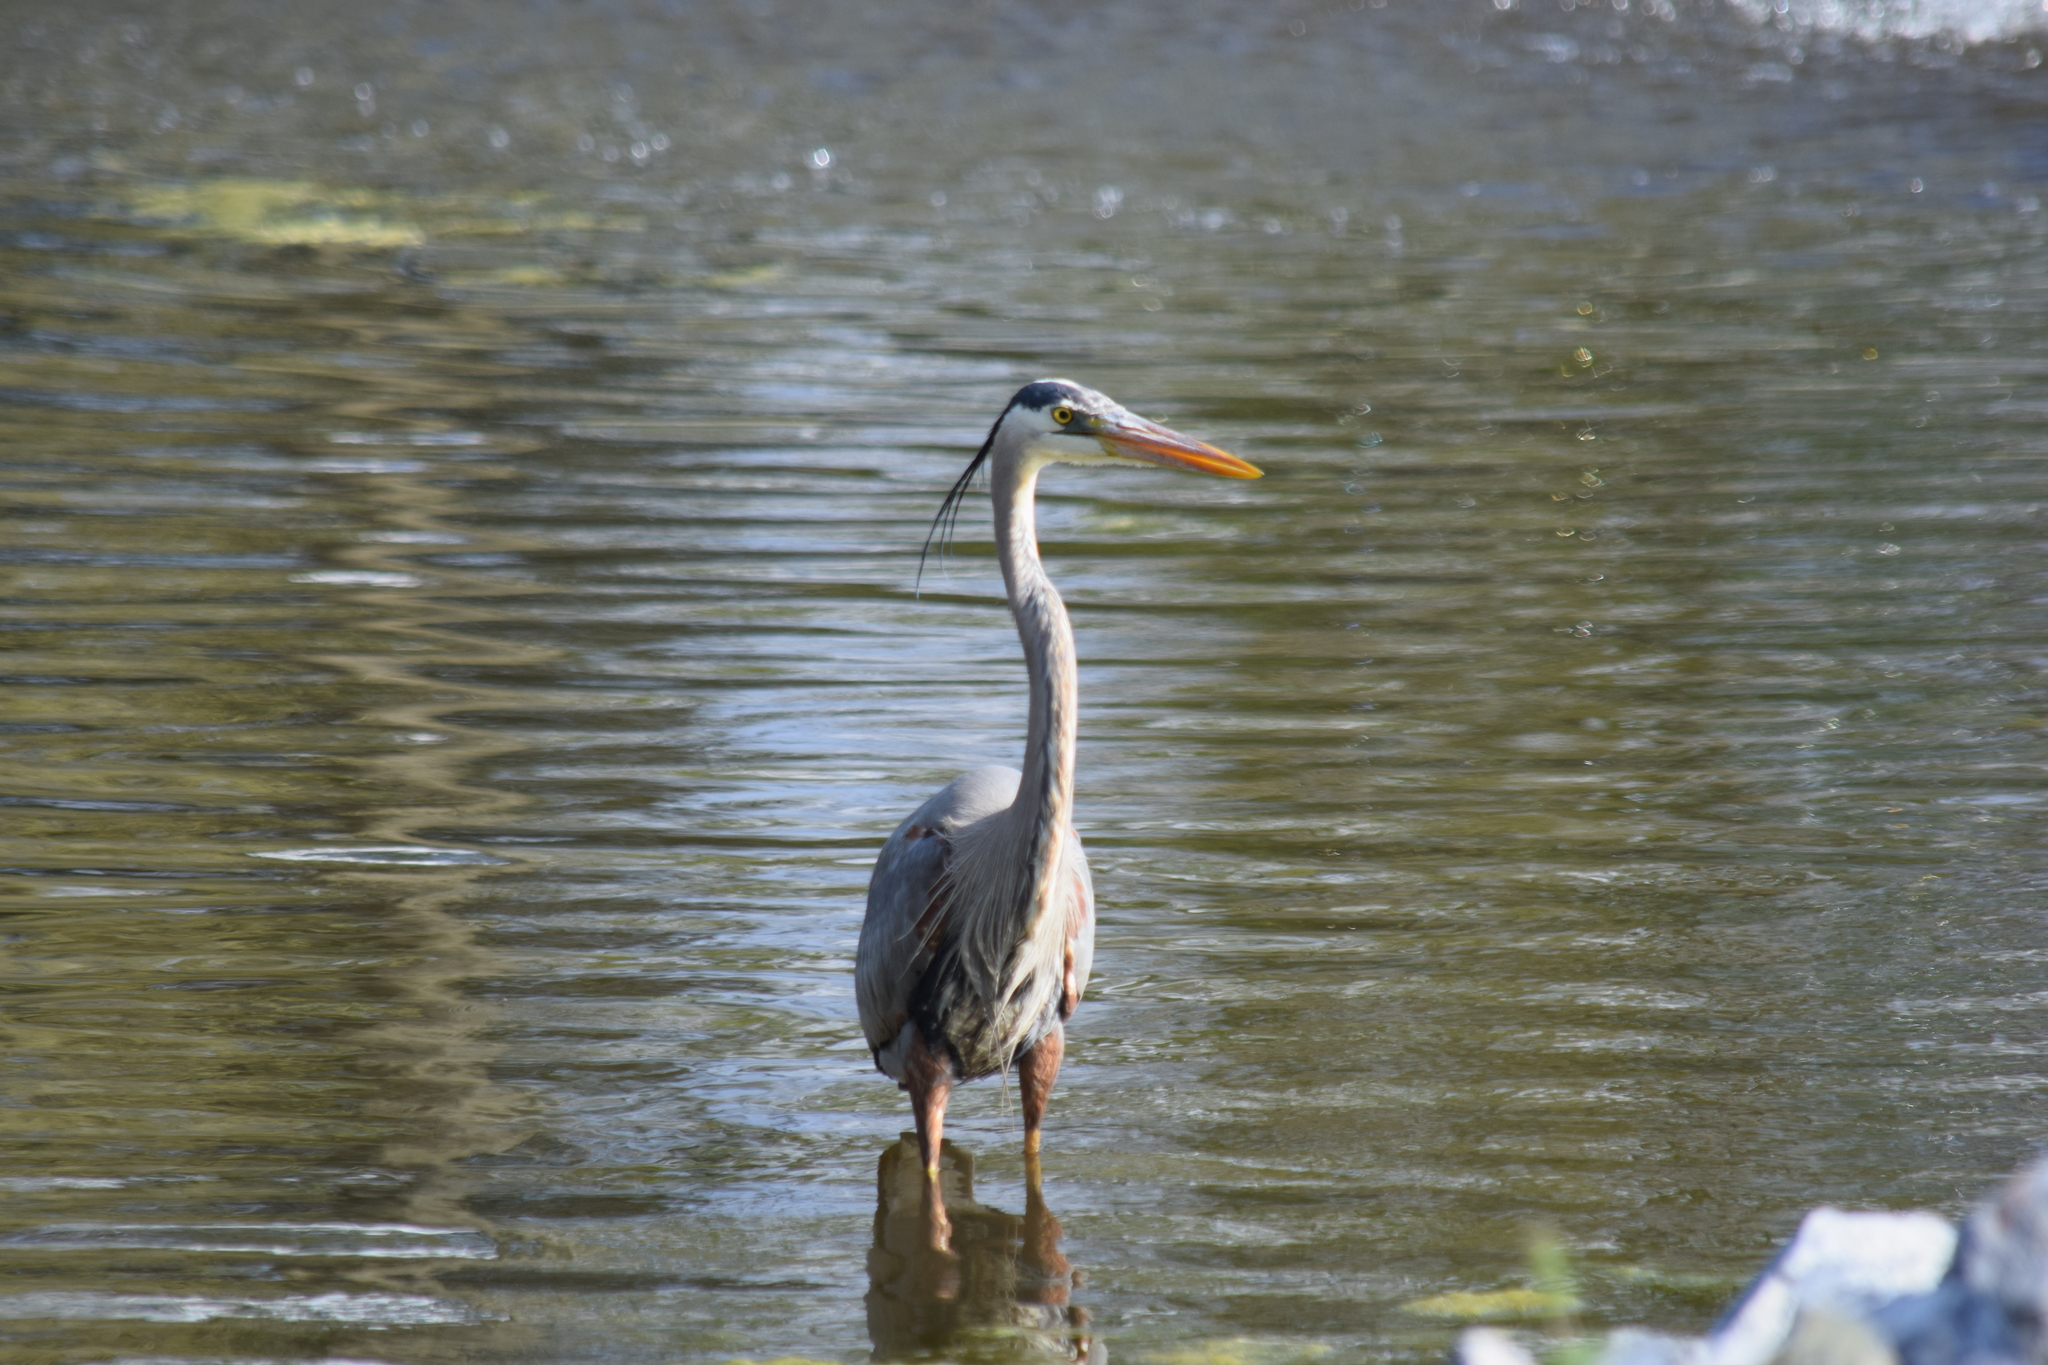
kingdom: Animalia
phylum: Chordata
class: Aves
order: Pelecaniformes
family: Ardeidae
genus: Ardea
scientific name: Ardea herodias
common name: Great blue heron
